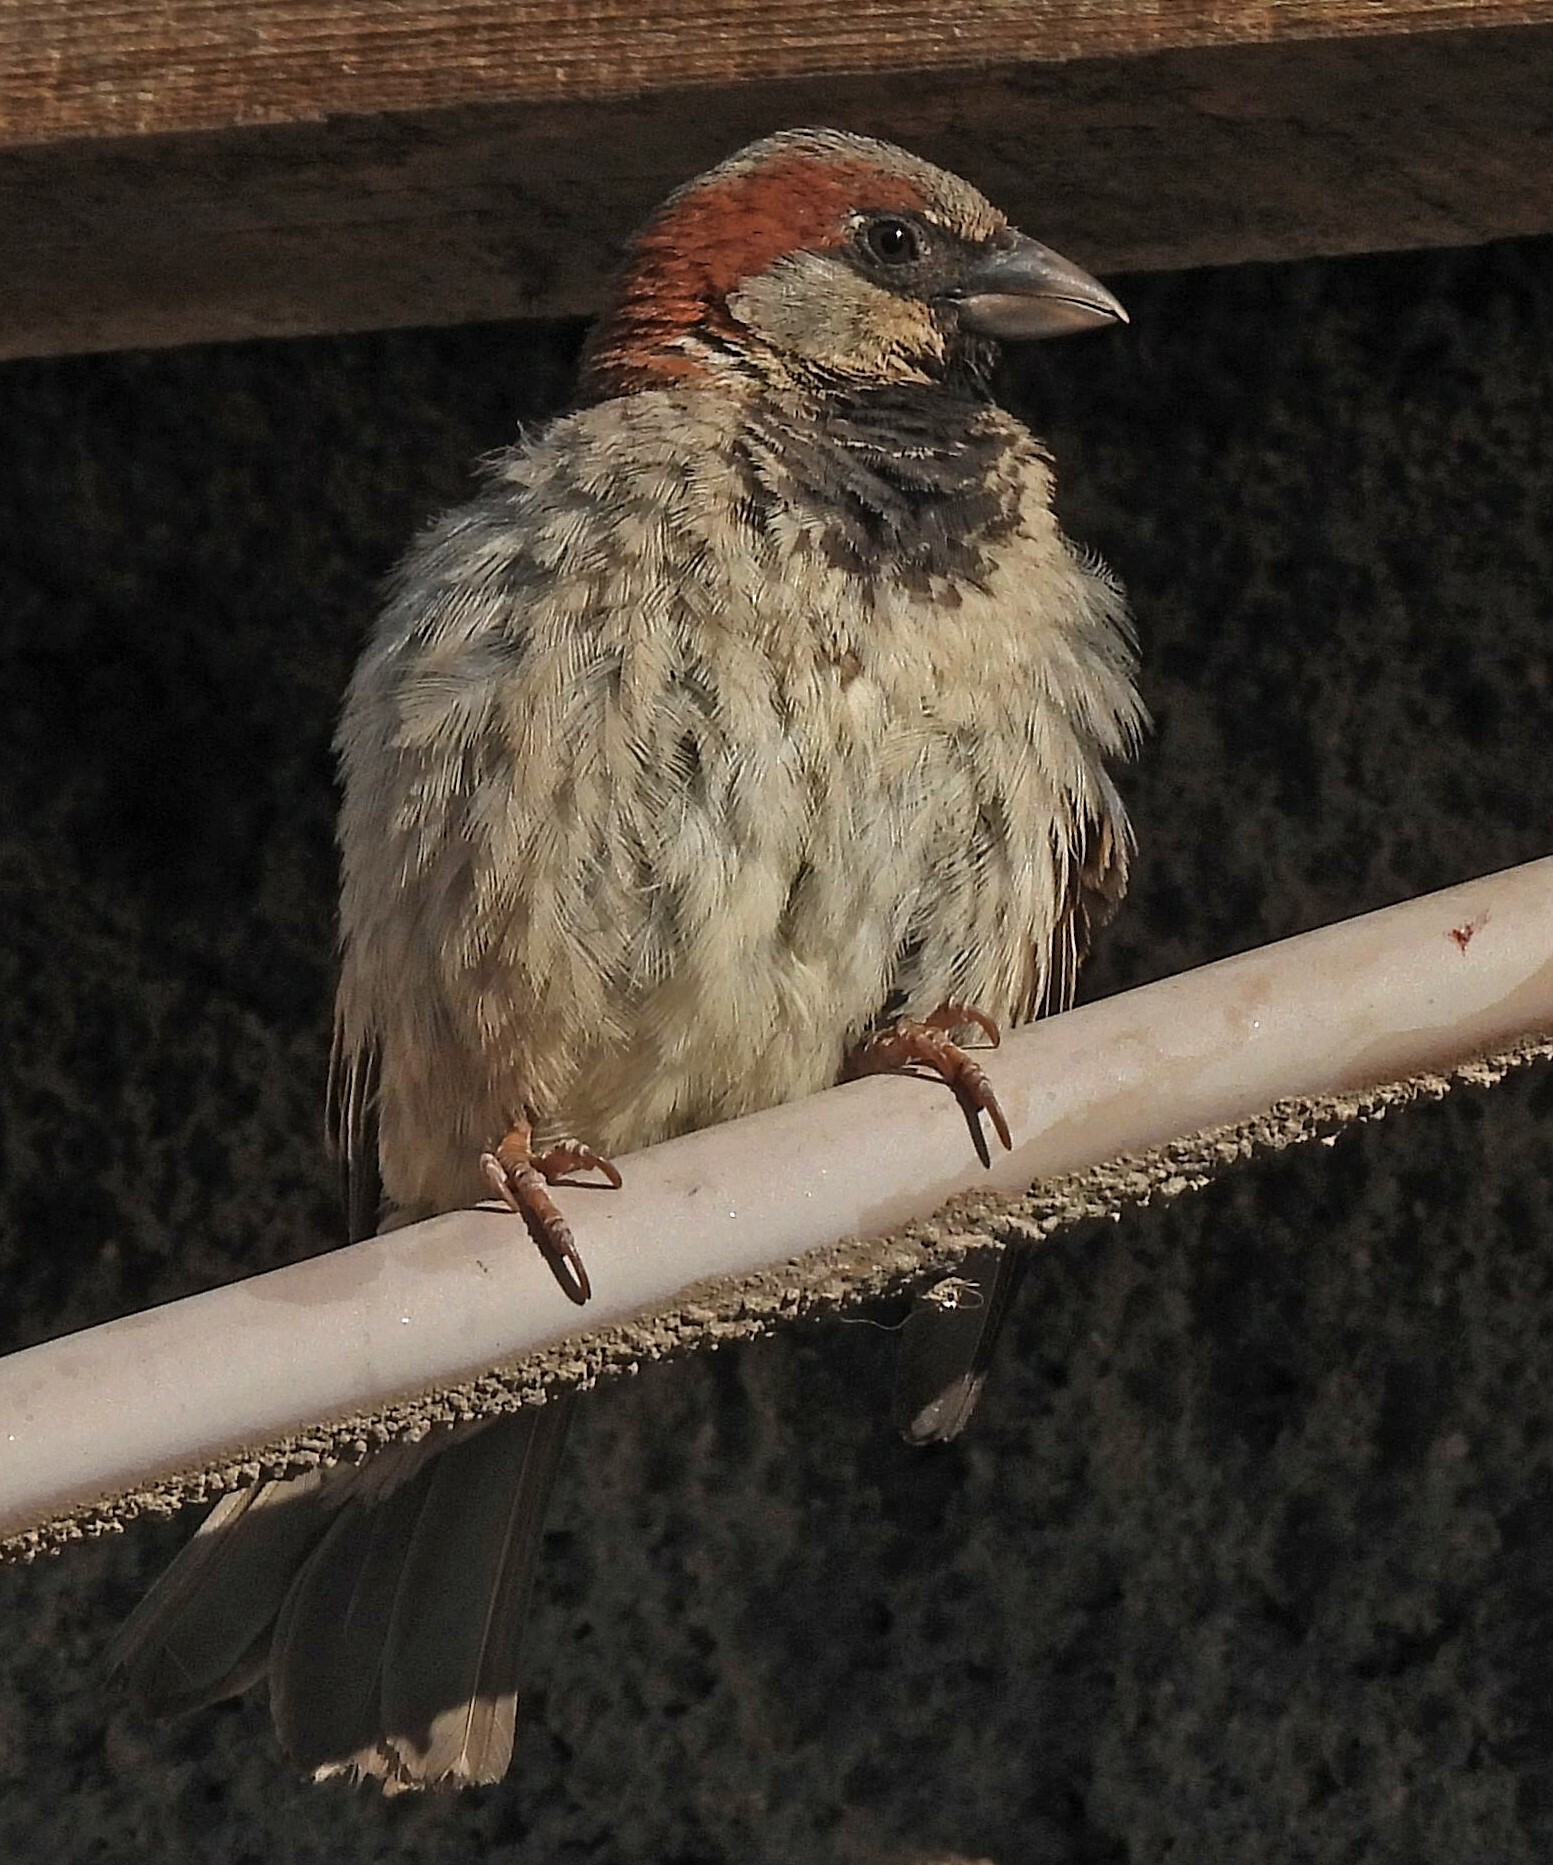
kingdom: Animalia
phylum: Chordata
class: Aves
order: Passeriformes
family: Passeridae
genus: Passer
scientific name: Passer domesticus
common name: House sparrow
